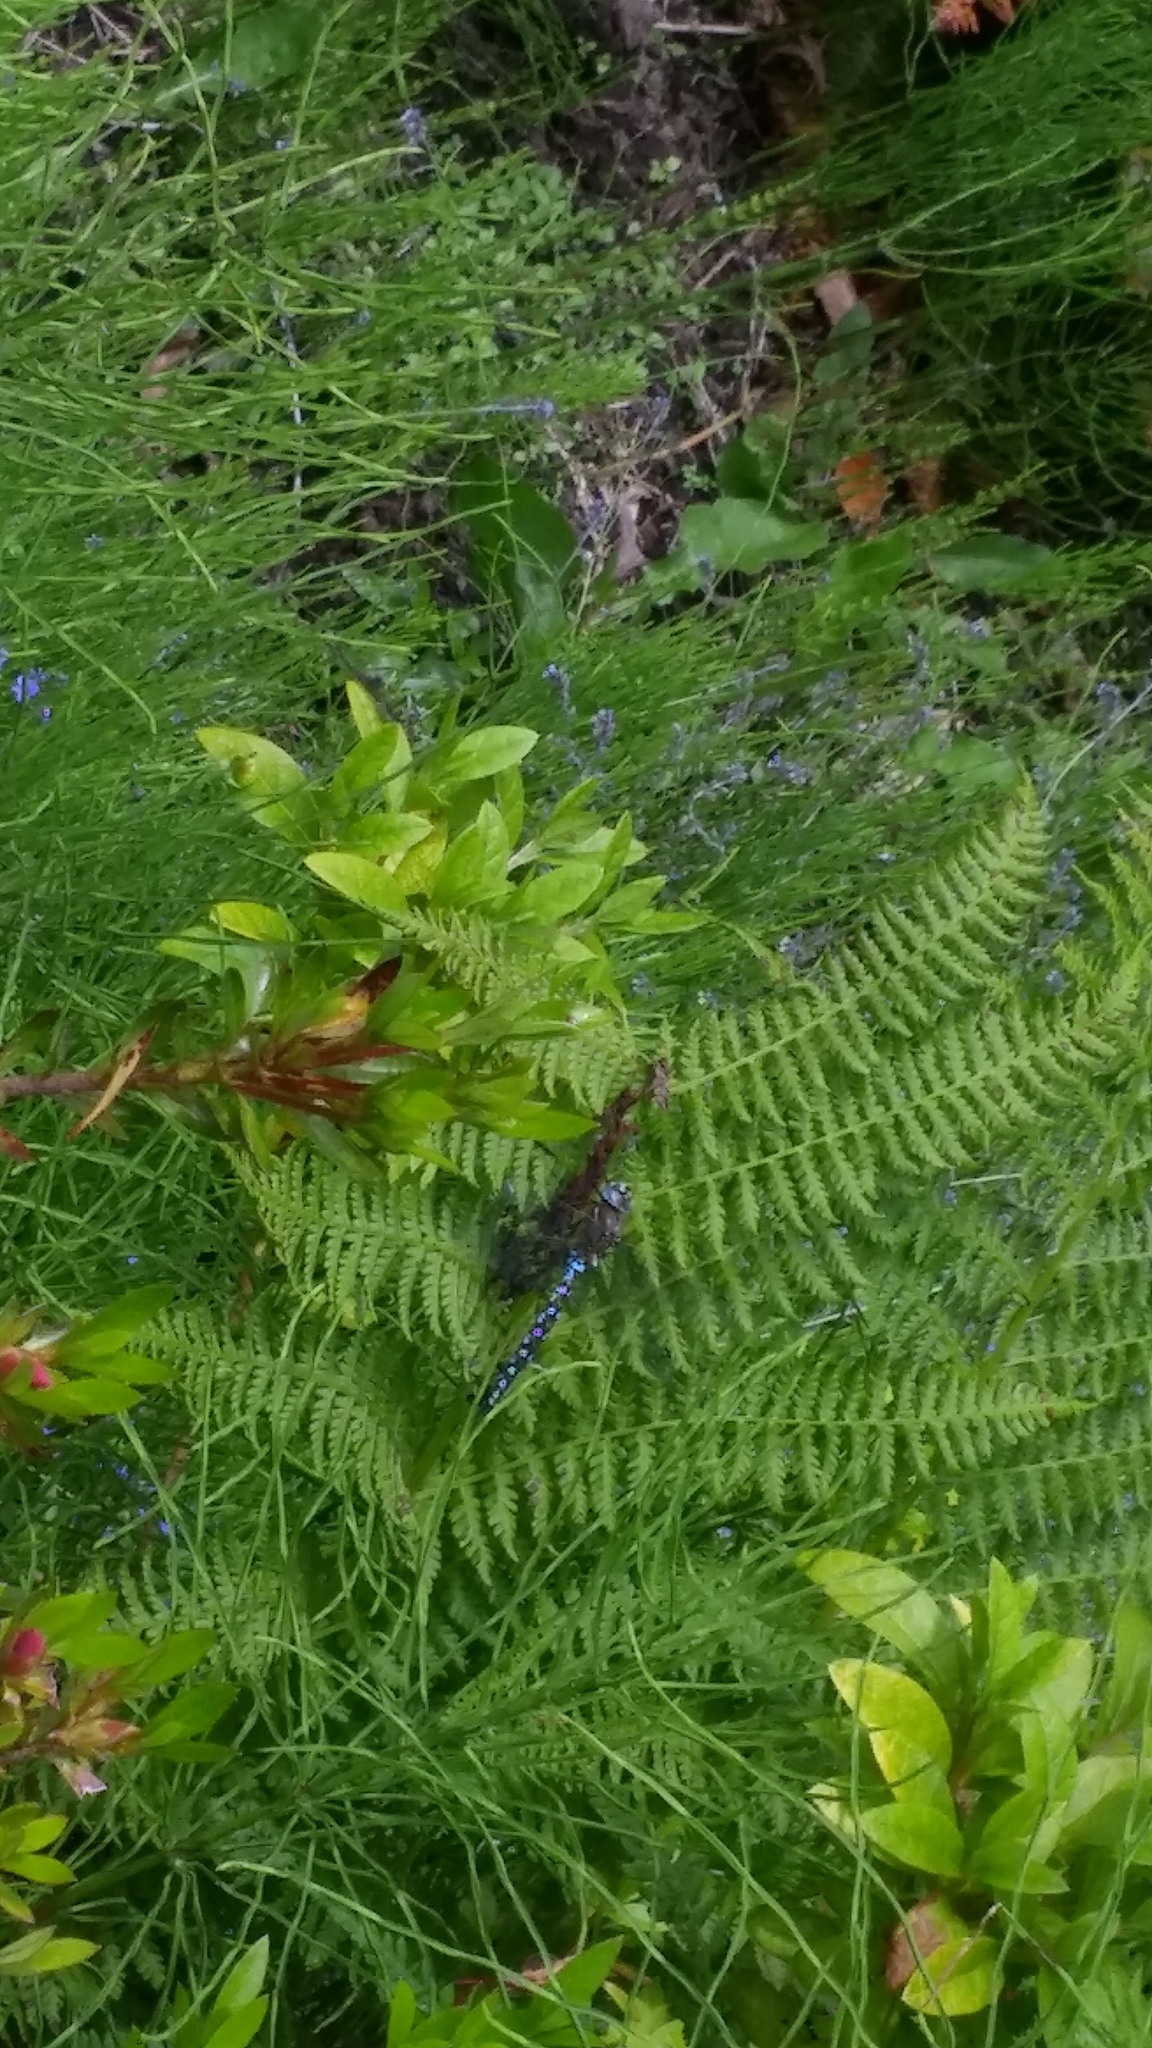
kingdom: Animalia
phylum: Arthropoda
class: Insecta
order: Odonata
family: Aeshnidae
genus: Rhionaeschna
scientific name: Rhionaeschna californica
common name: California darner
